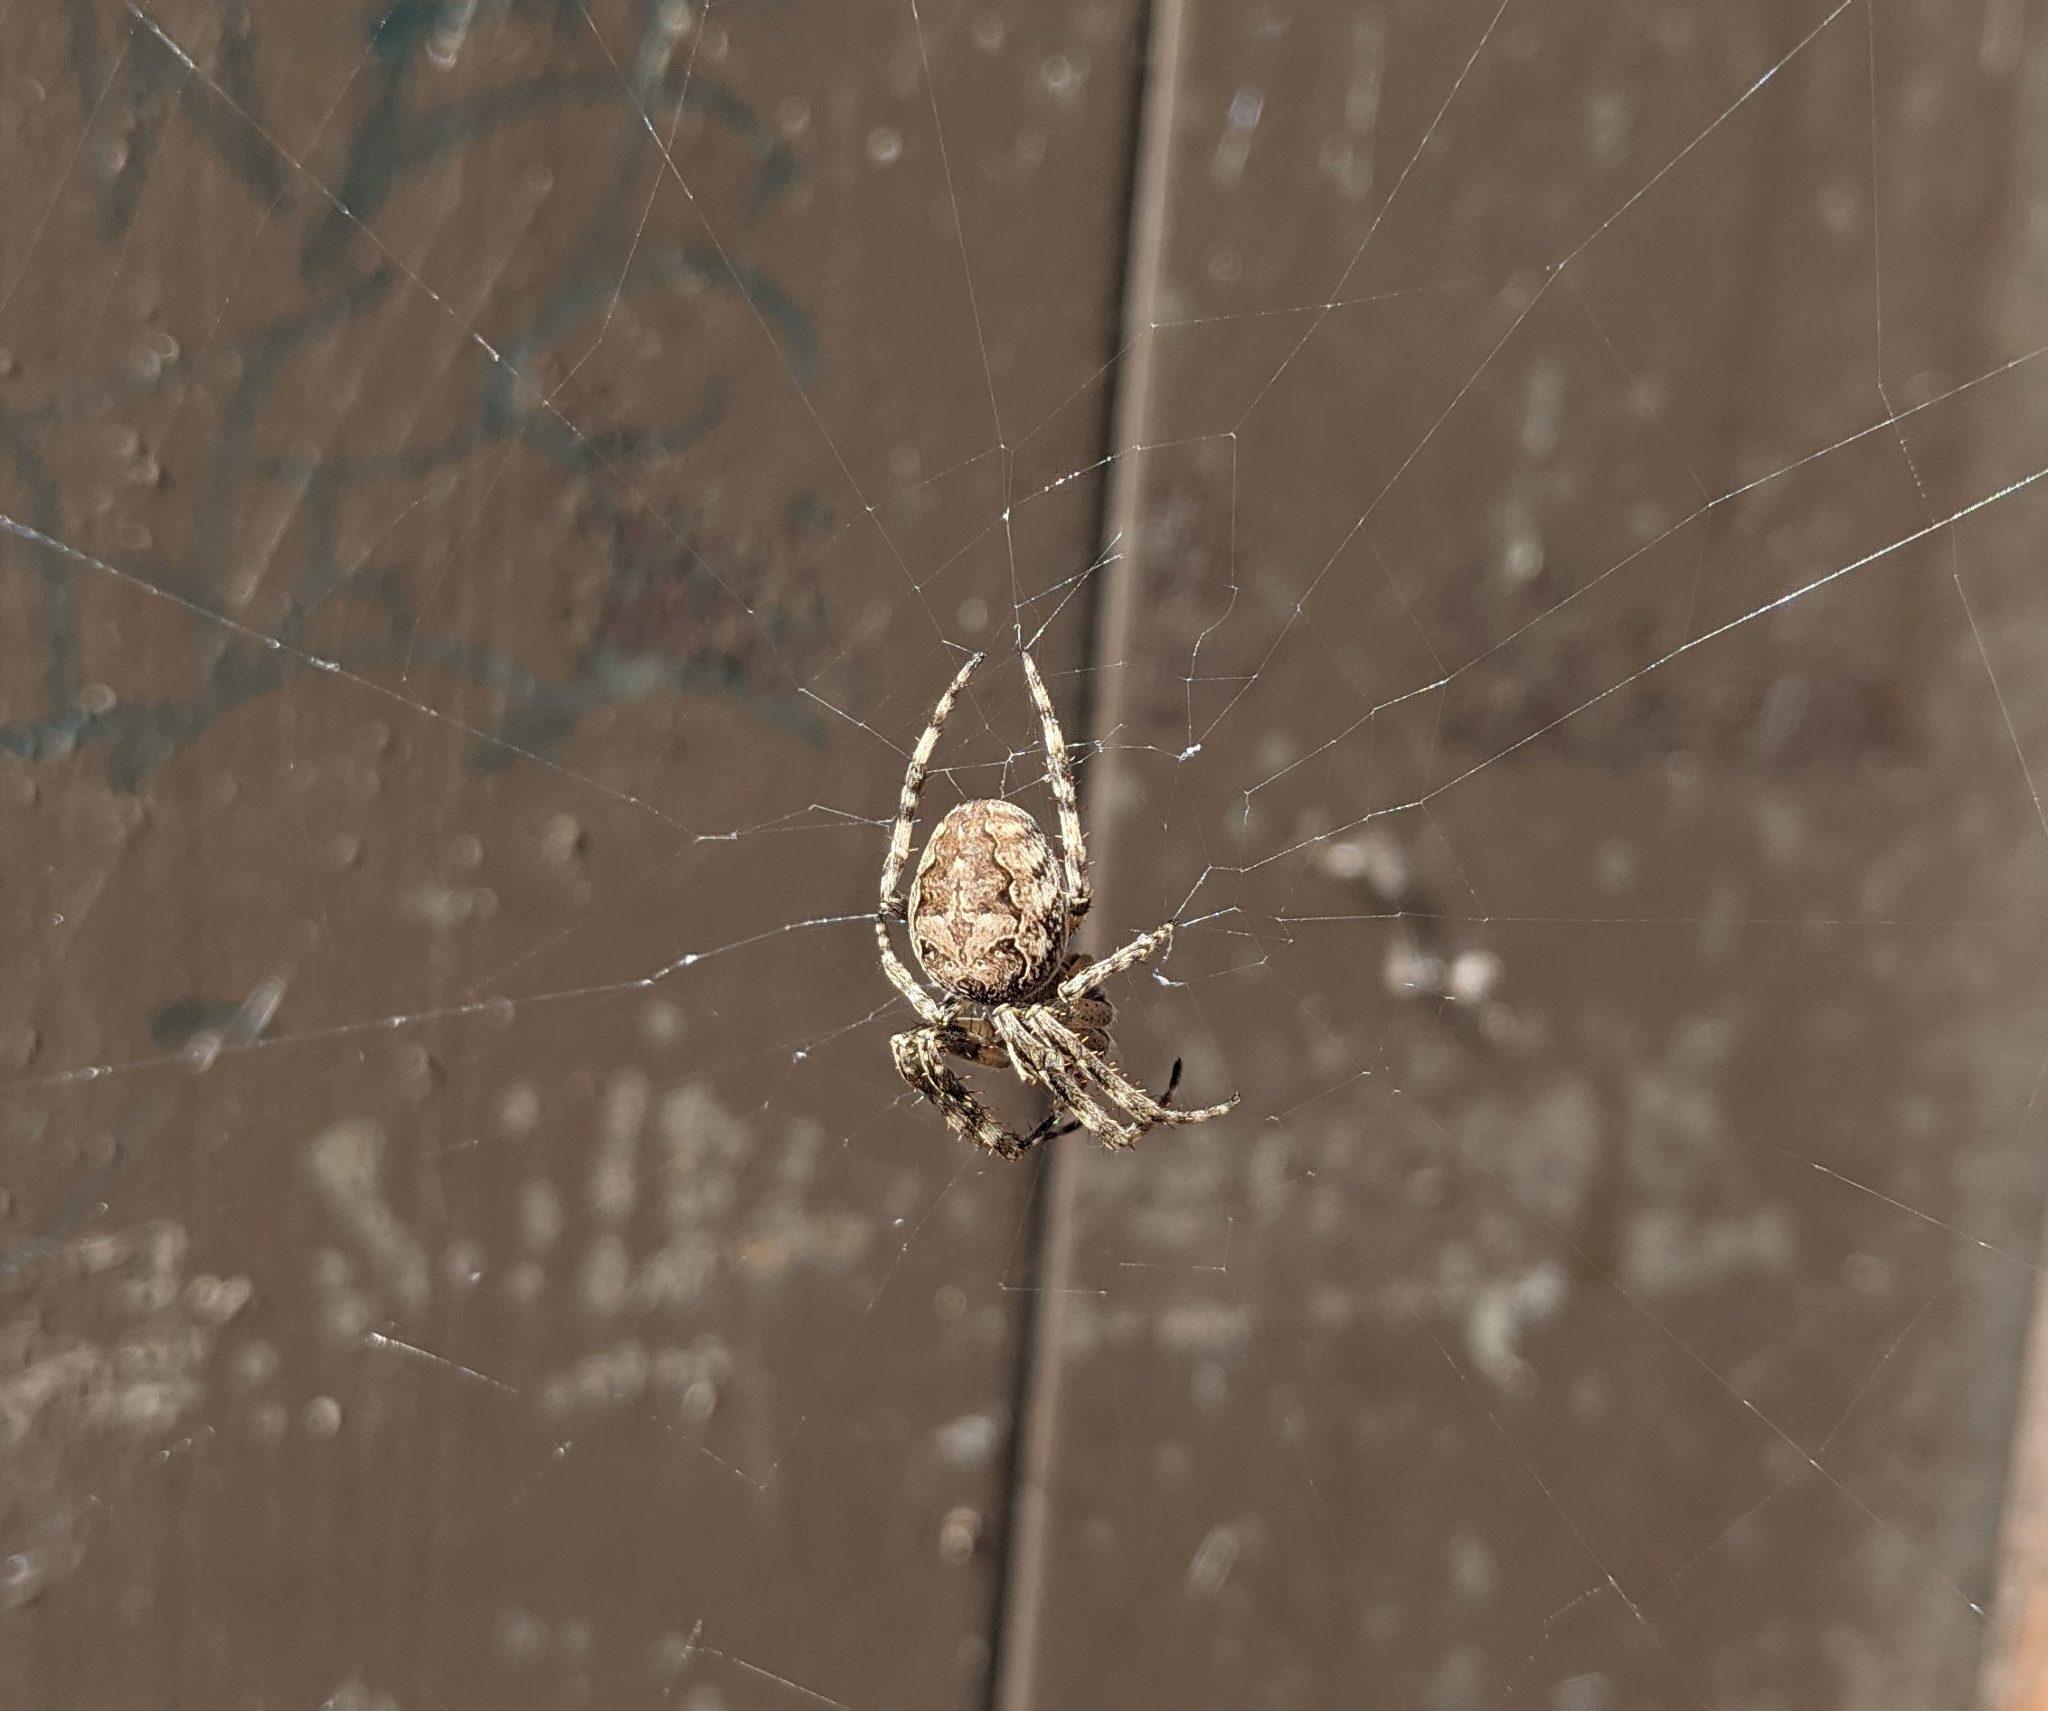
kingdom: Animalia
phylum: Arthropoda
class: Arachnida
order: Araneae
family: Araneidae
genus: Larinioides
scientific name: Larinioides sclopetarius
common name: Bridge orbweaver
